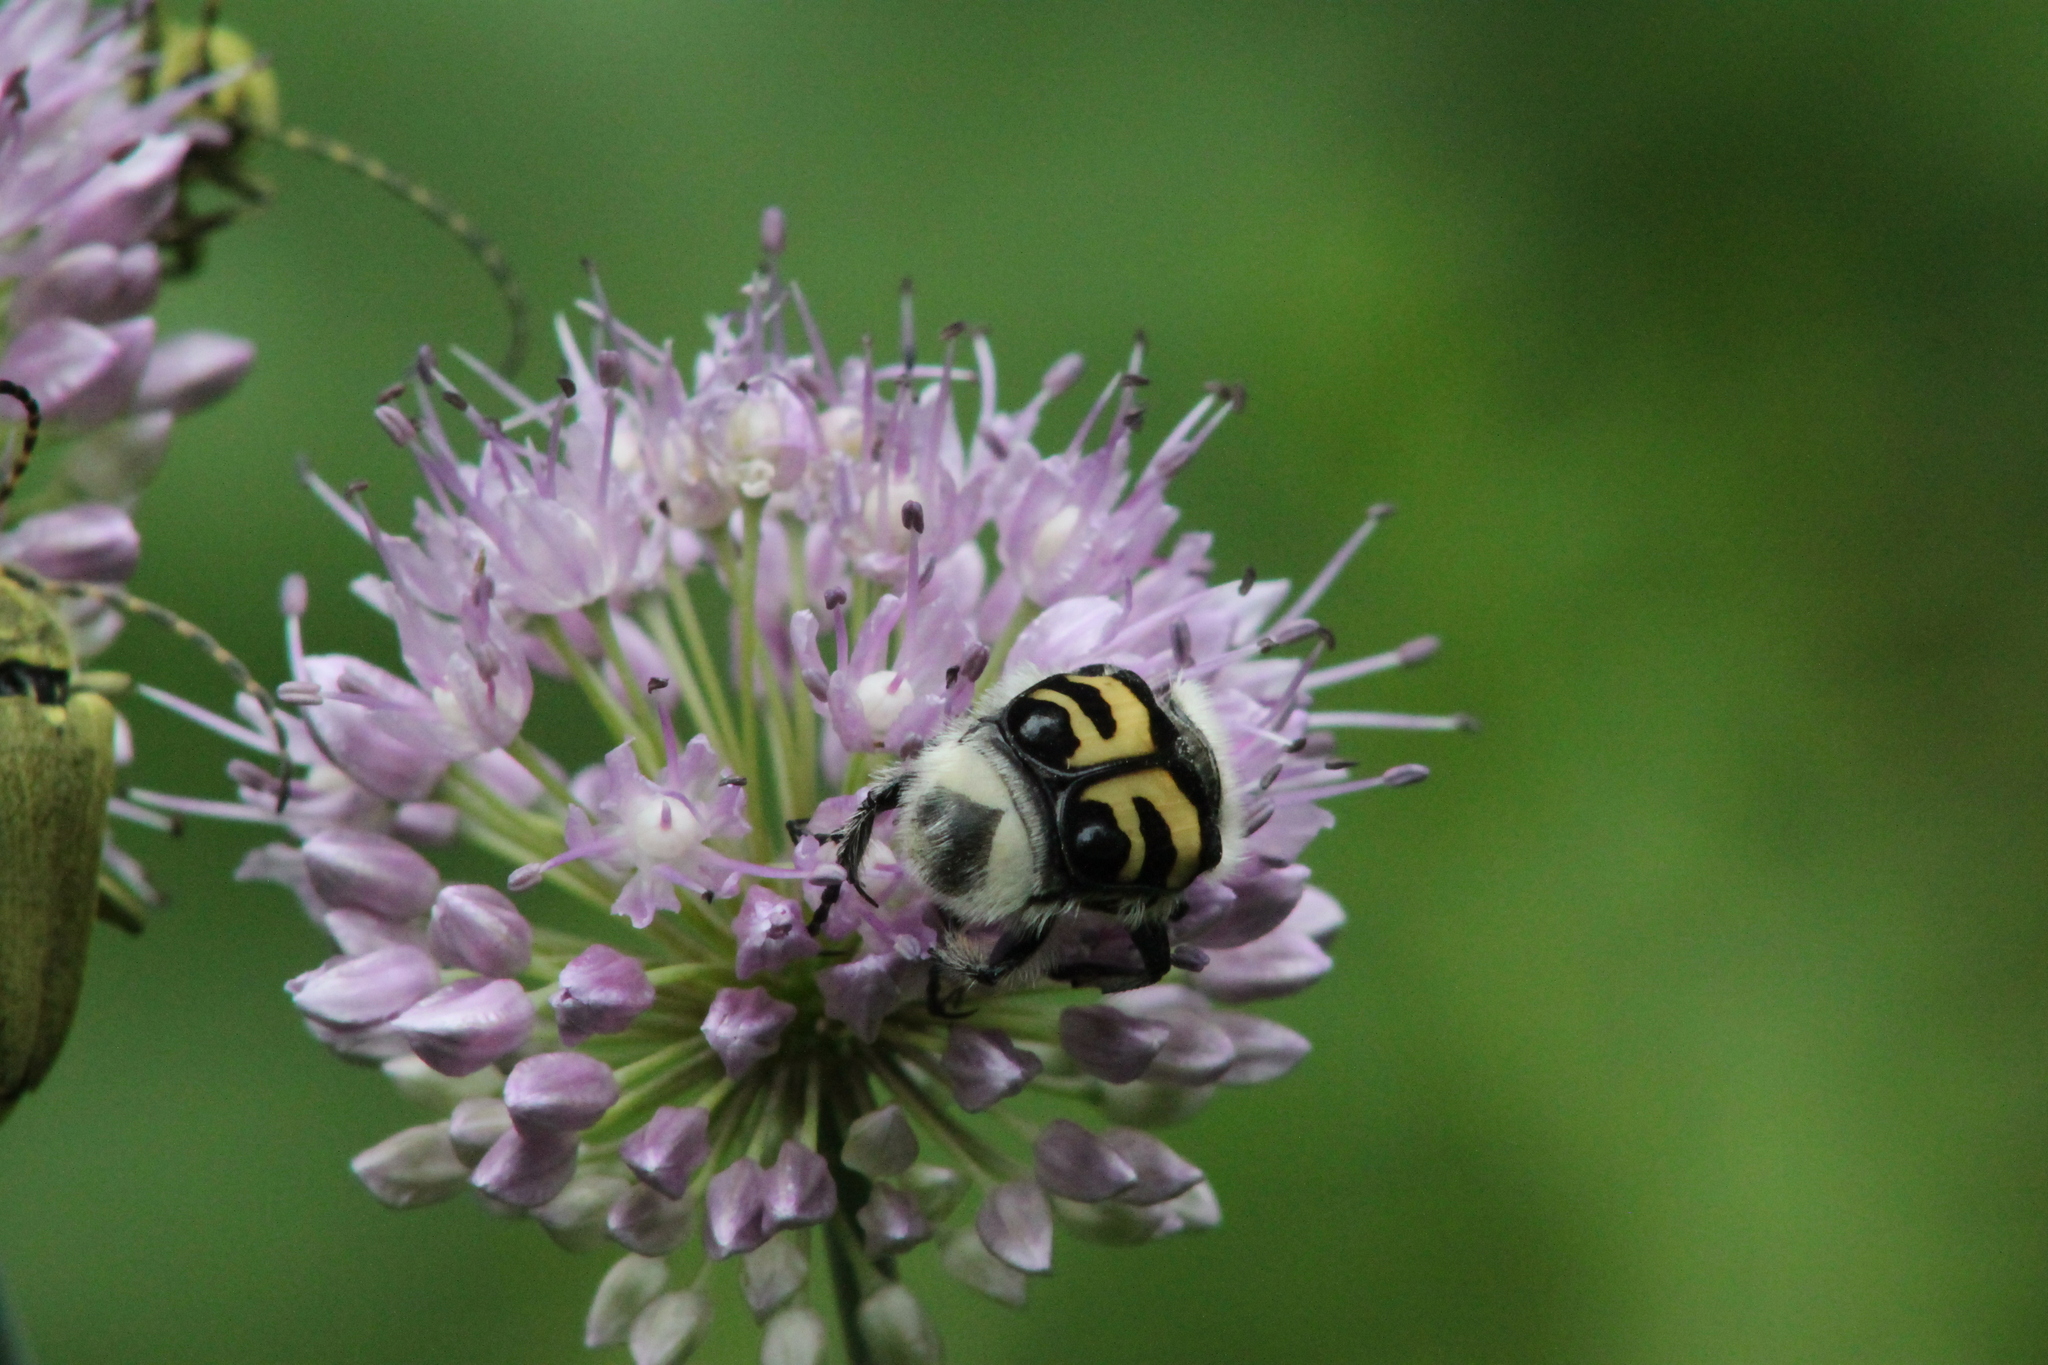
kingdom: Animalia
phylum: Arthropoda
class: Insecta
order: Coleoptera
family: Scarabaeidae
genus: Trichius
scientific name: Trichius fasciatus
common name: Bee beetle
